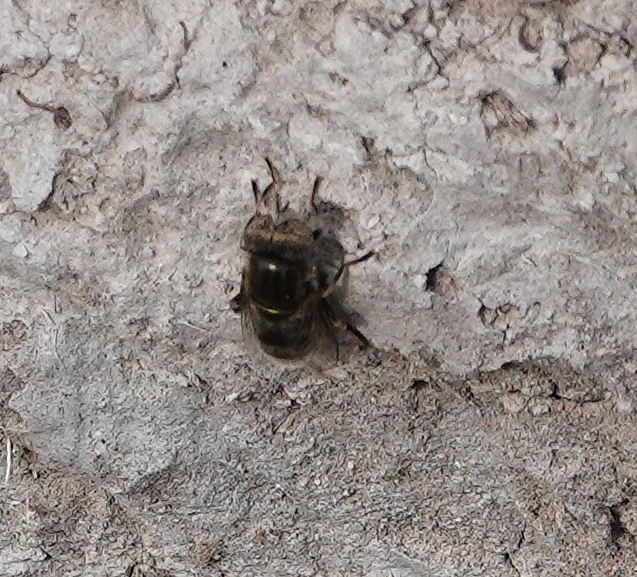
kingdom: Animalia
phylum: Arthropoda
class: Insecta
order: Diptera
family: Syrphidae
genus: Eristalinus
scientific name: Eristalinus aeneus
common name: Syrphid fly
